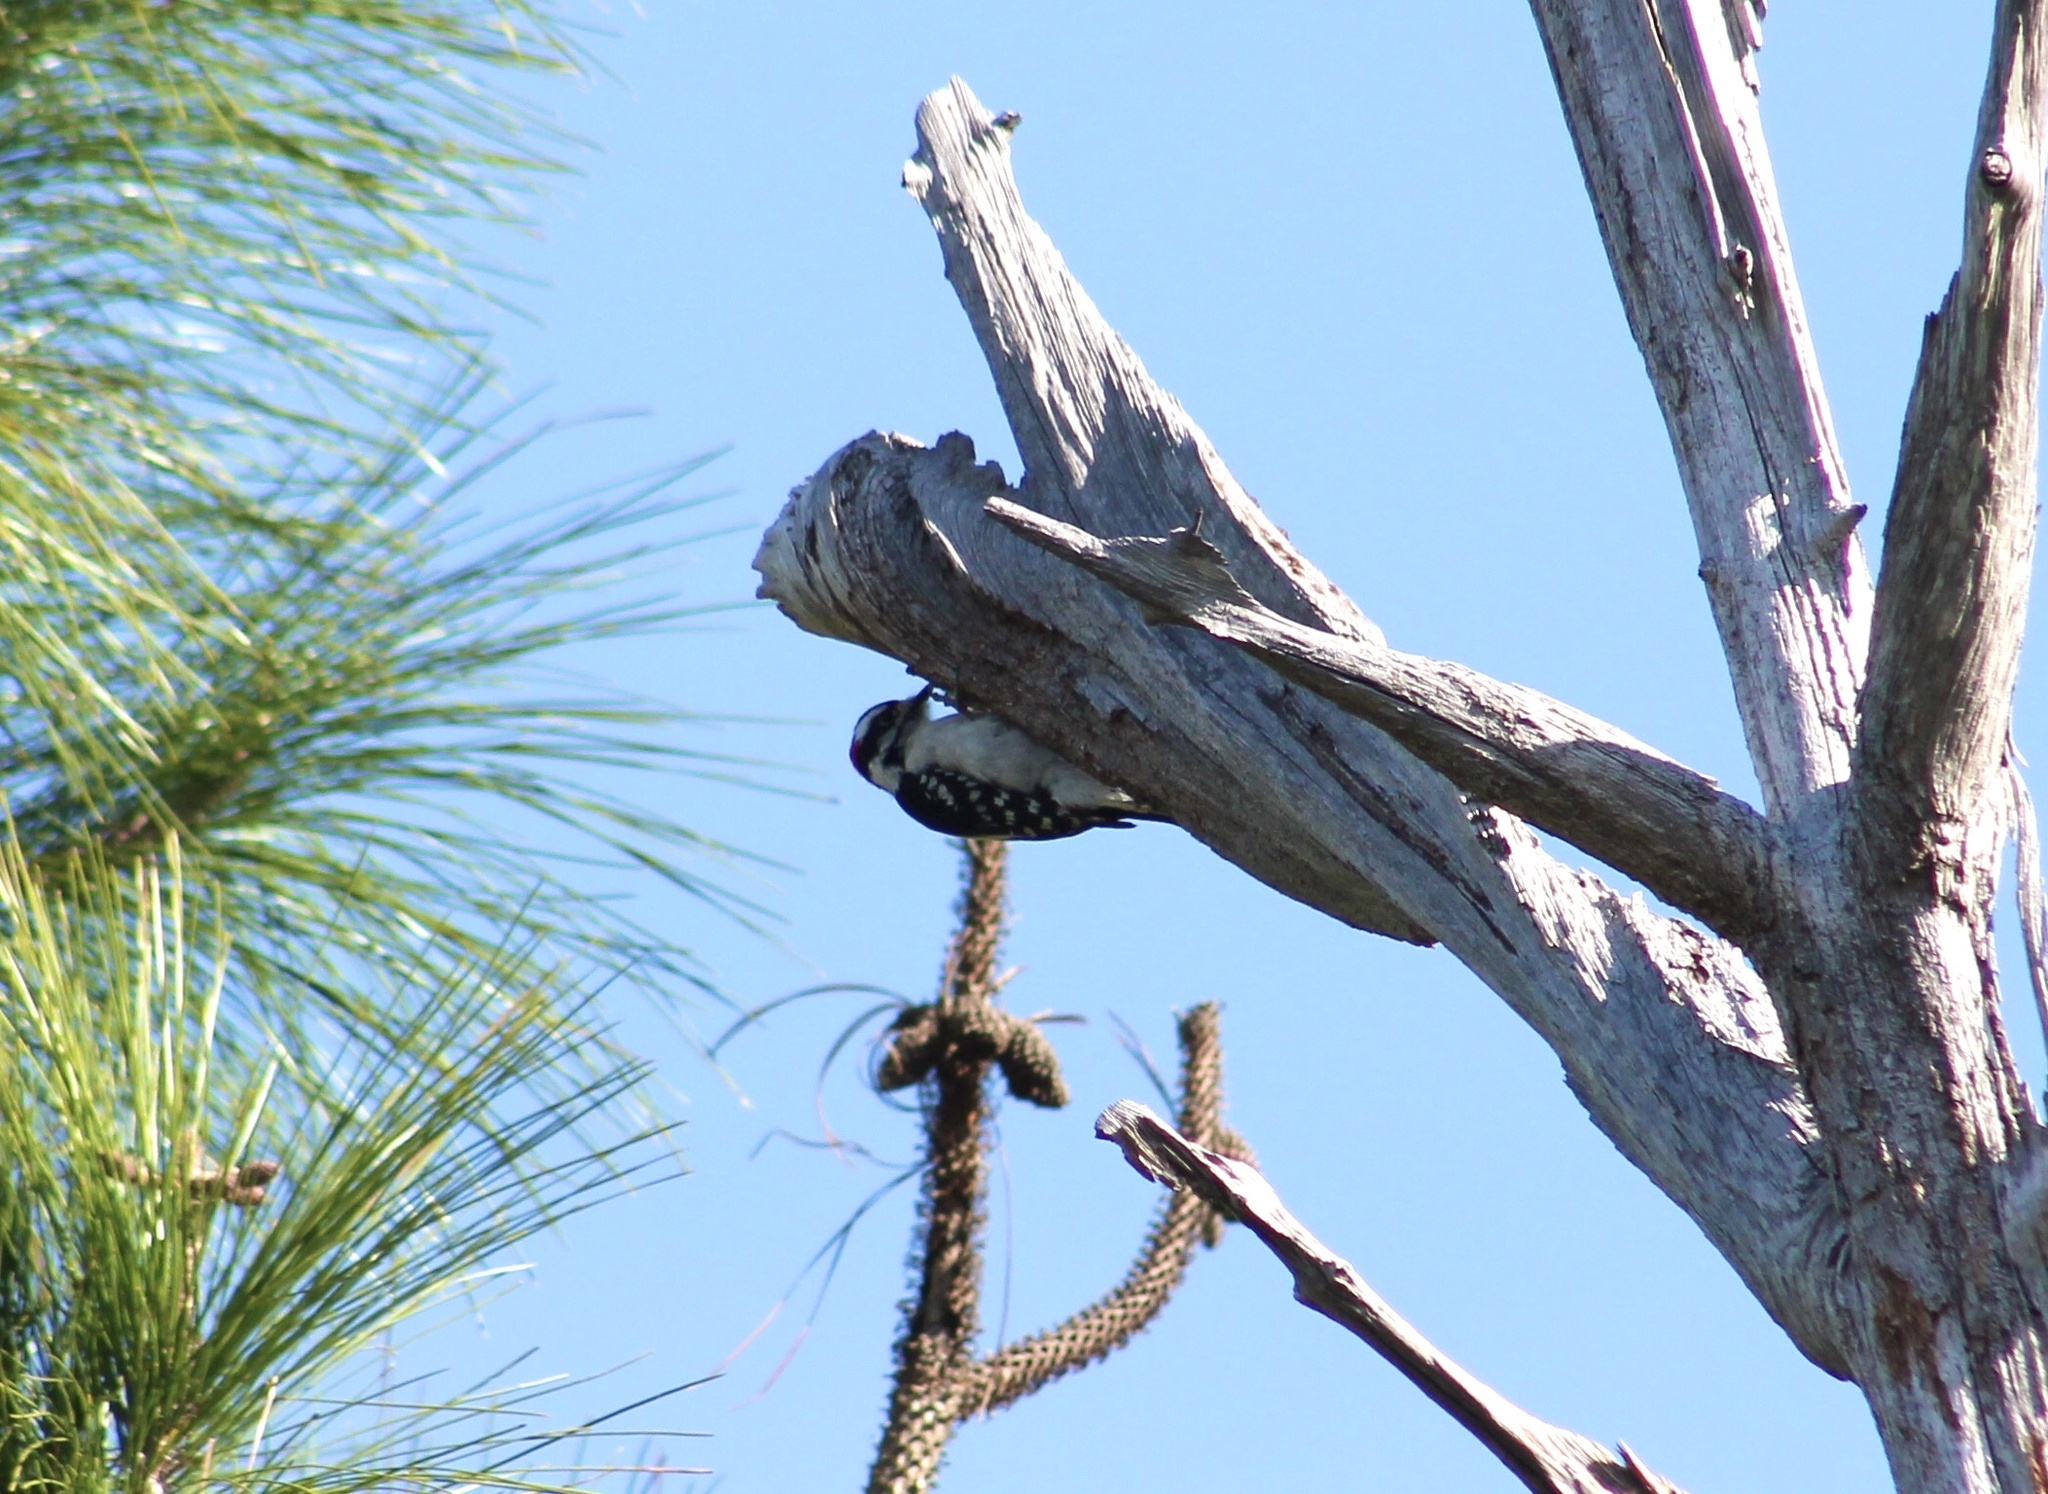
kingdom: Animalia
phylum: Chordata
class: Aves
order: Piciformes
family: Picidae
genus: Dryobates
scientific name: Dryobates pubescens
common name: Downy woodpecker
